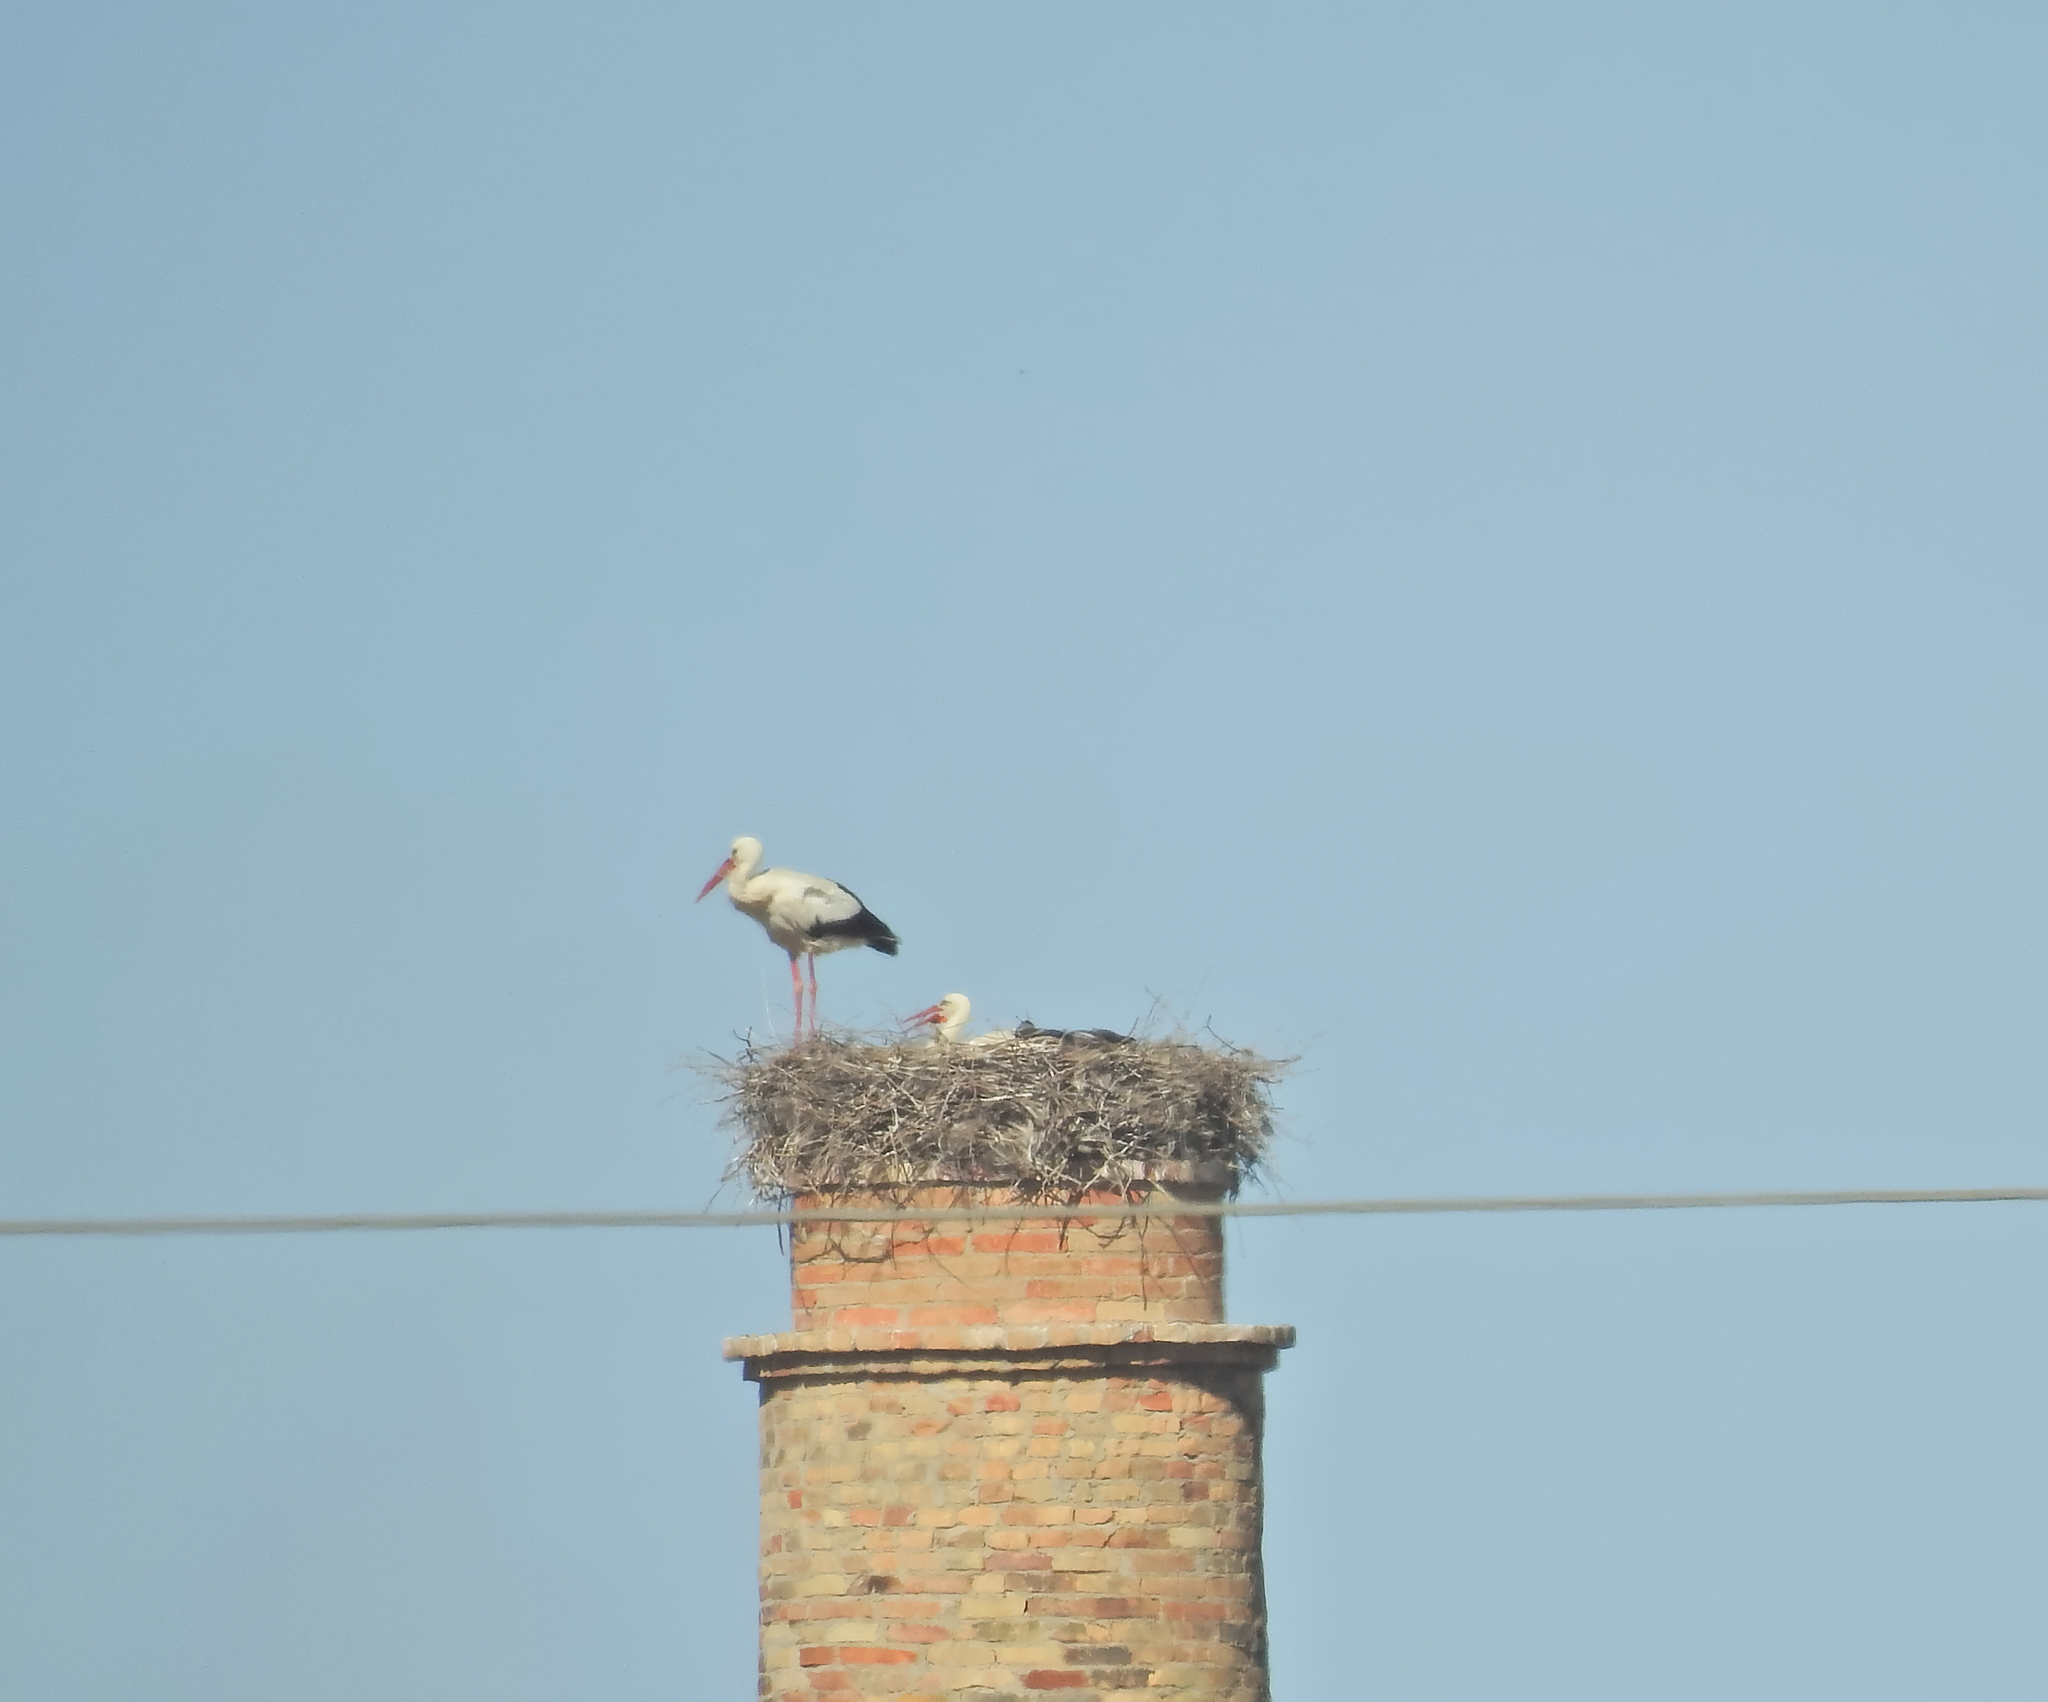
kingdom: Animalia
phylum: Chordata
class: Aves
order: Ciconiiformes
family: Ciconiidae
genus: Ciconia
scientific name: Ciconia ciconia
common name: White stork
